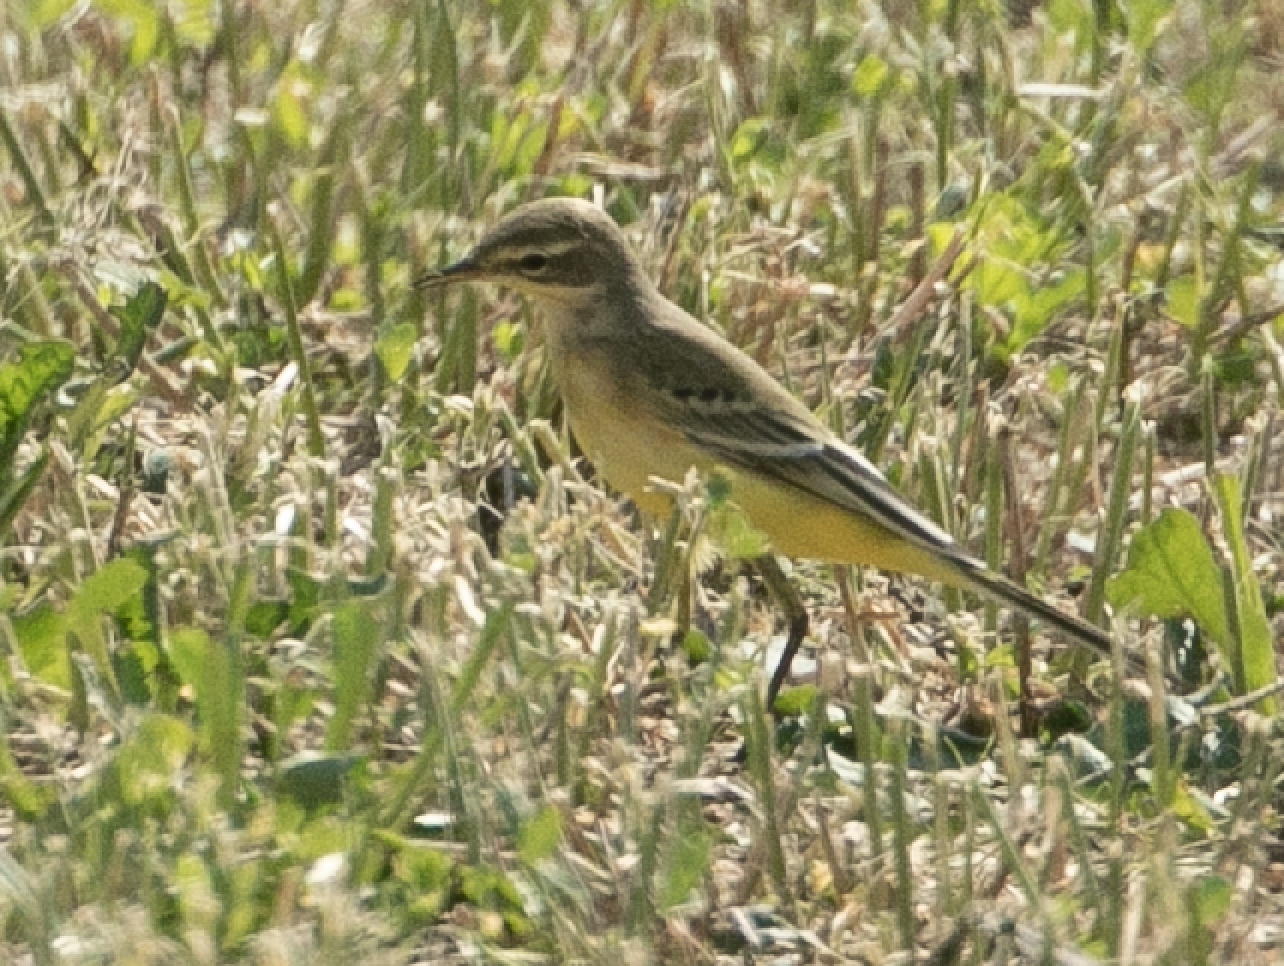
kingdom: Animalia
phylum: Chordata
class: Aves
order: Passeriformes
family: Motacillidae
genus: Motacilla
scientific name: Motacilla flava
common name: Western yellow wagtail
